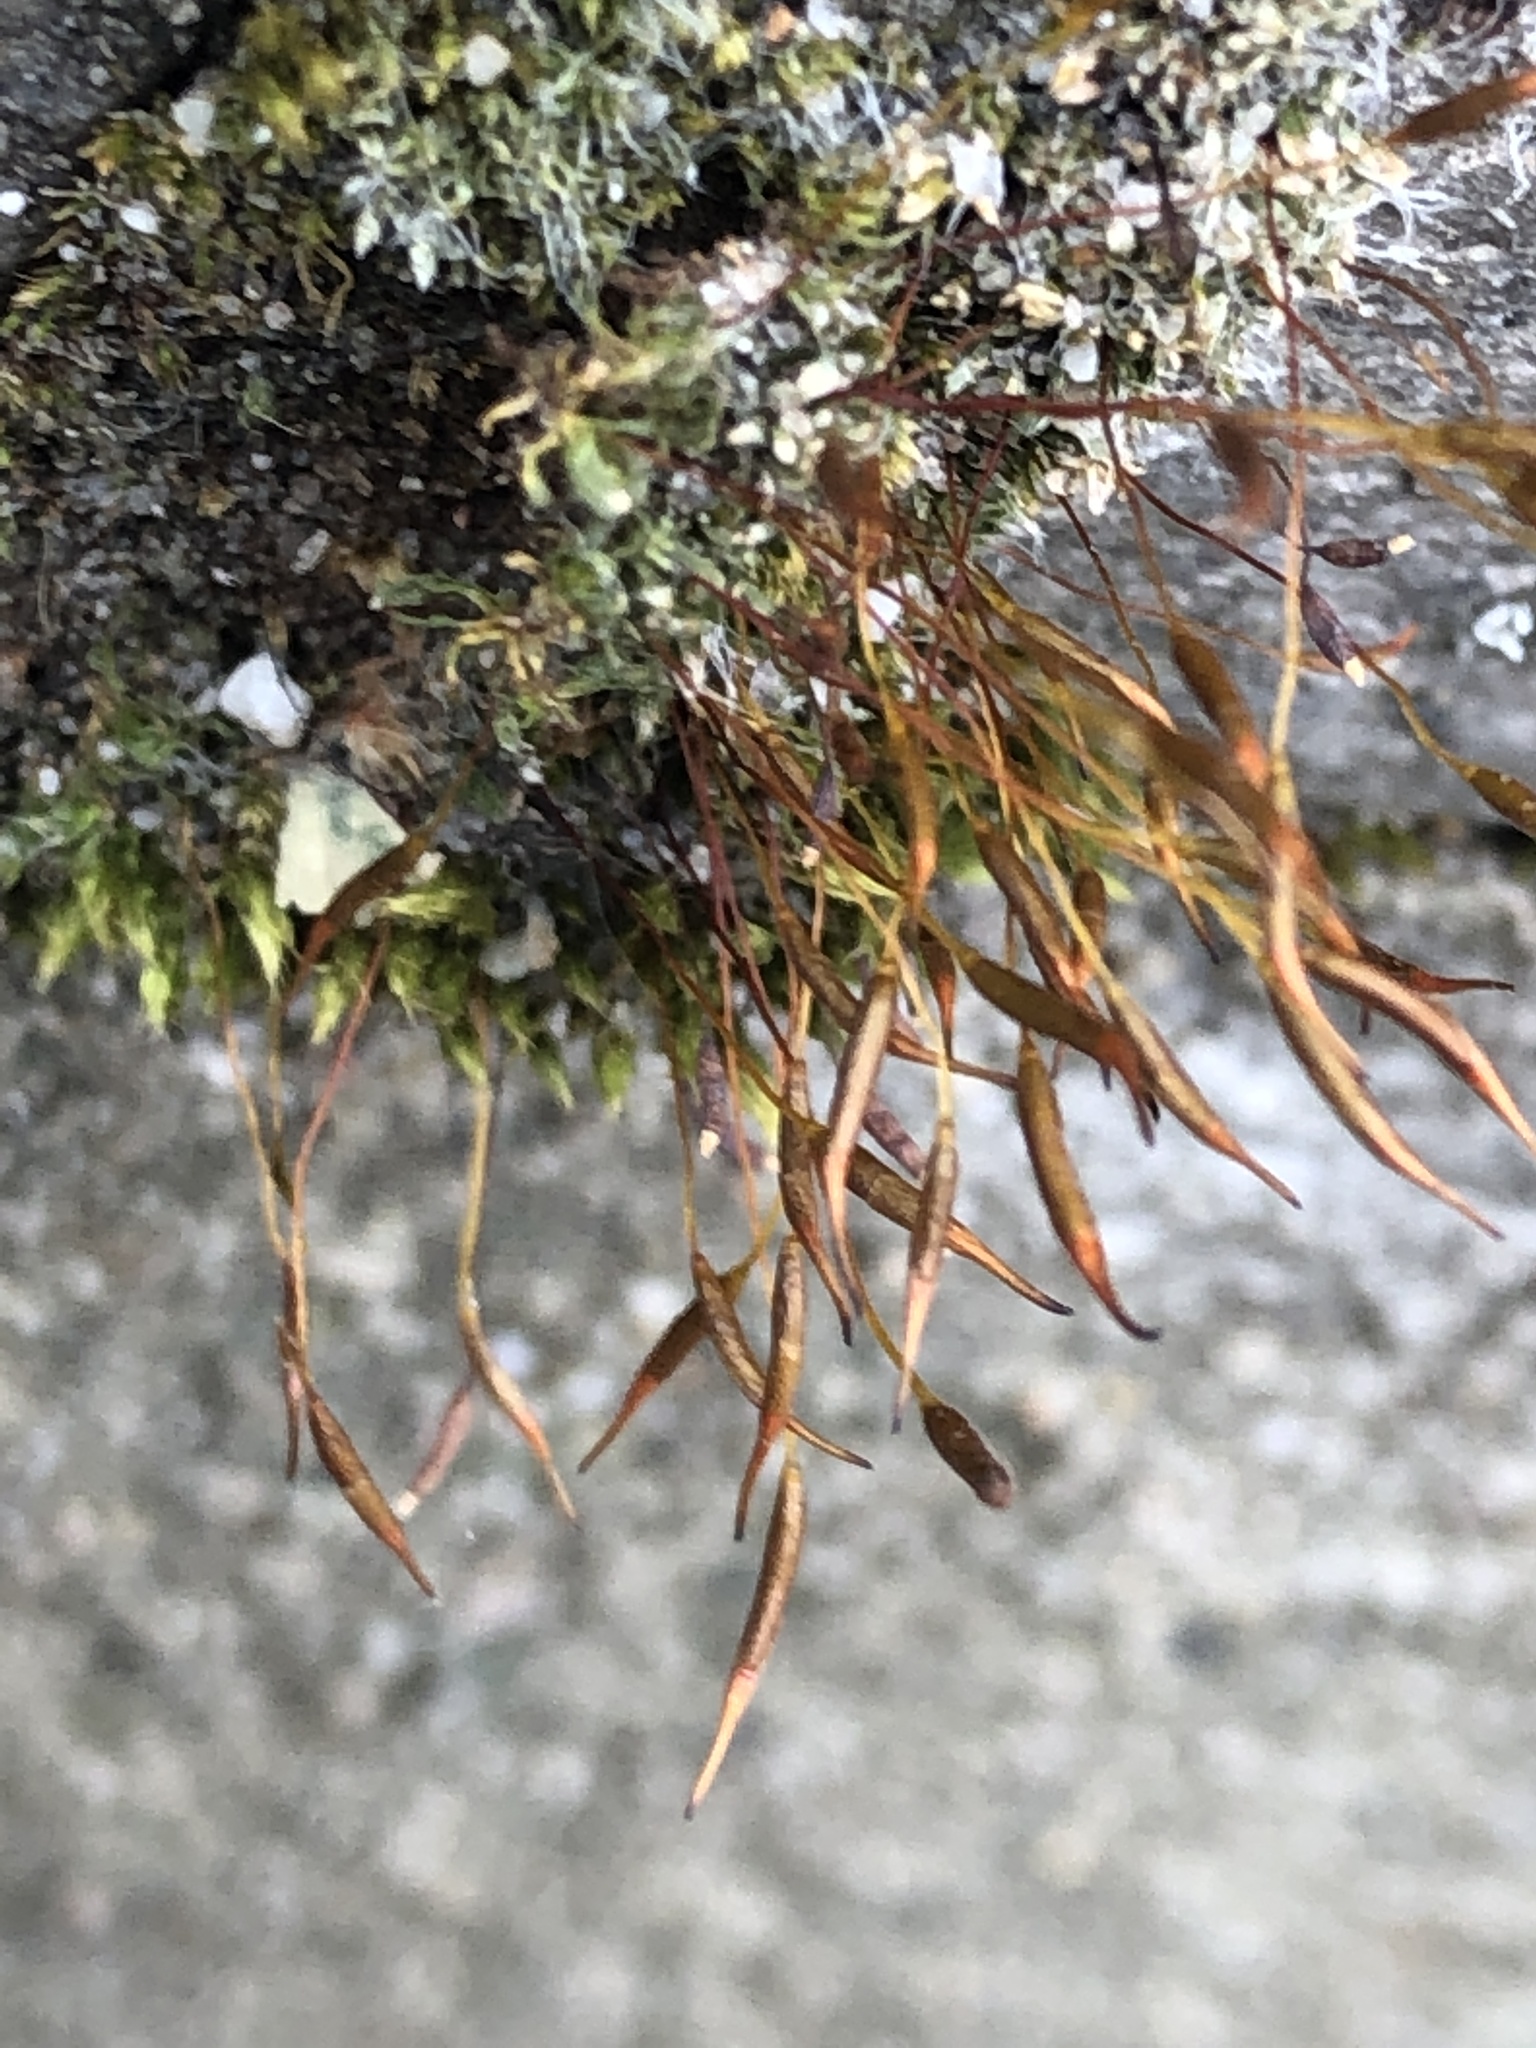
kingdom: Plantae
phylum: Bryophyta
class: Bryopsida
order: Pottiales
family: Pottiaceae
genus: Tortula
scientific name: Tortula muralis
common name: Wall screw-moss
